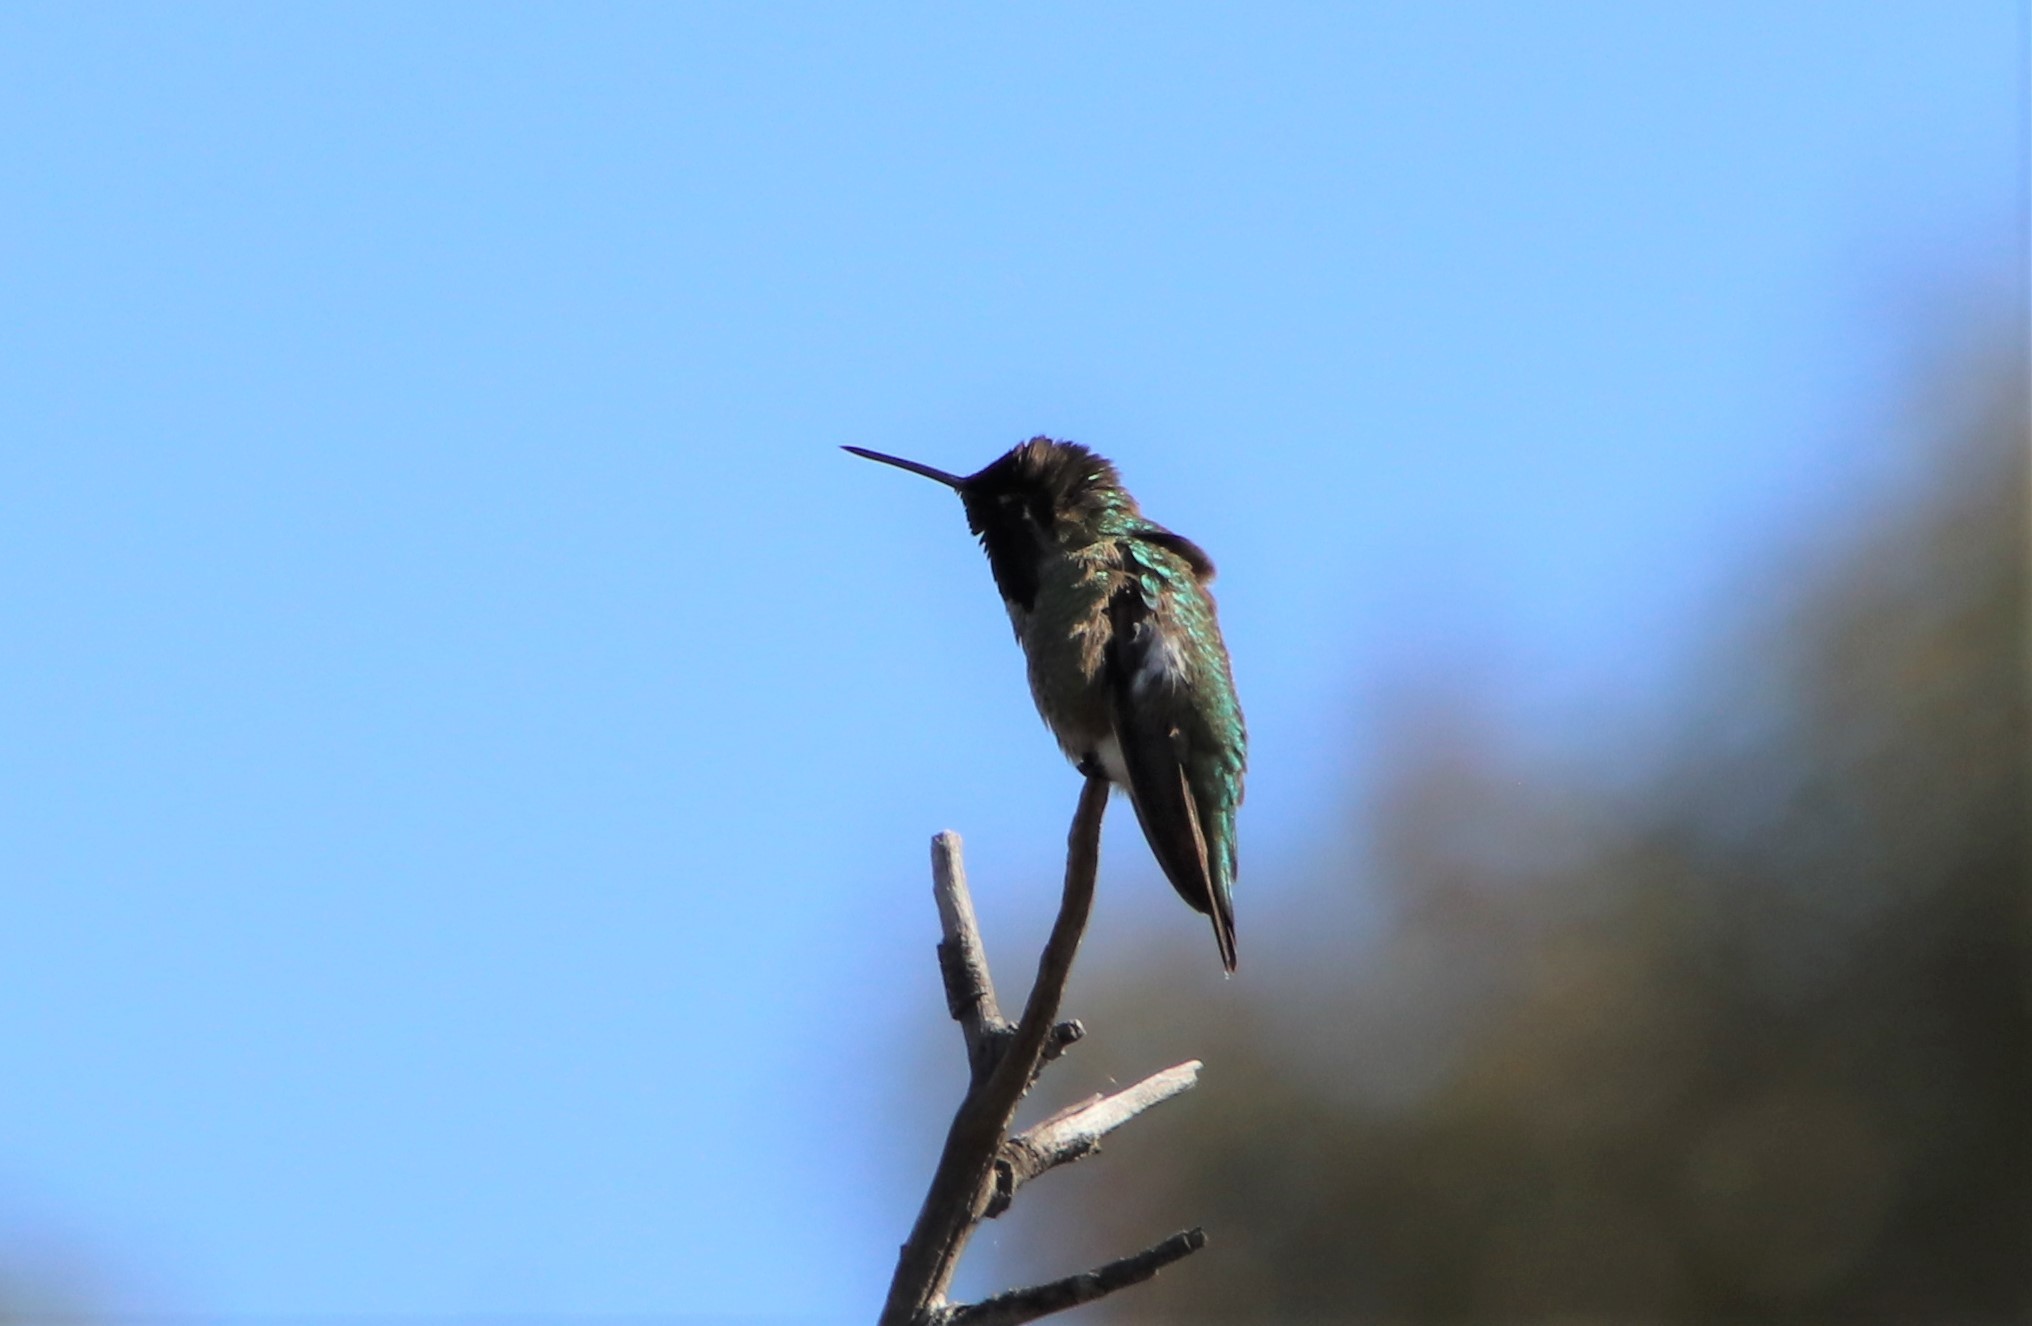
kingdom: Animalia
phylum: Chordata
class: Aves
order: Apodiformes
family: Trochilidae
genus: Calypte
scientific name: Calypte anna
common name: Anna's hummingbird
